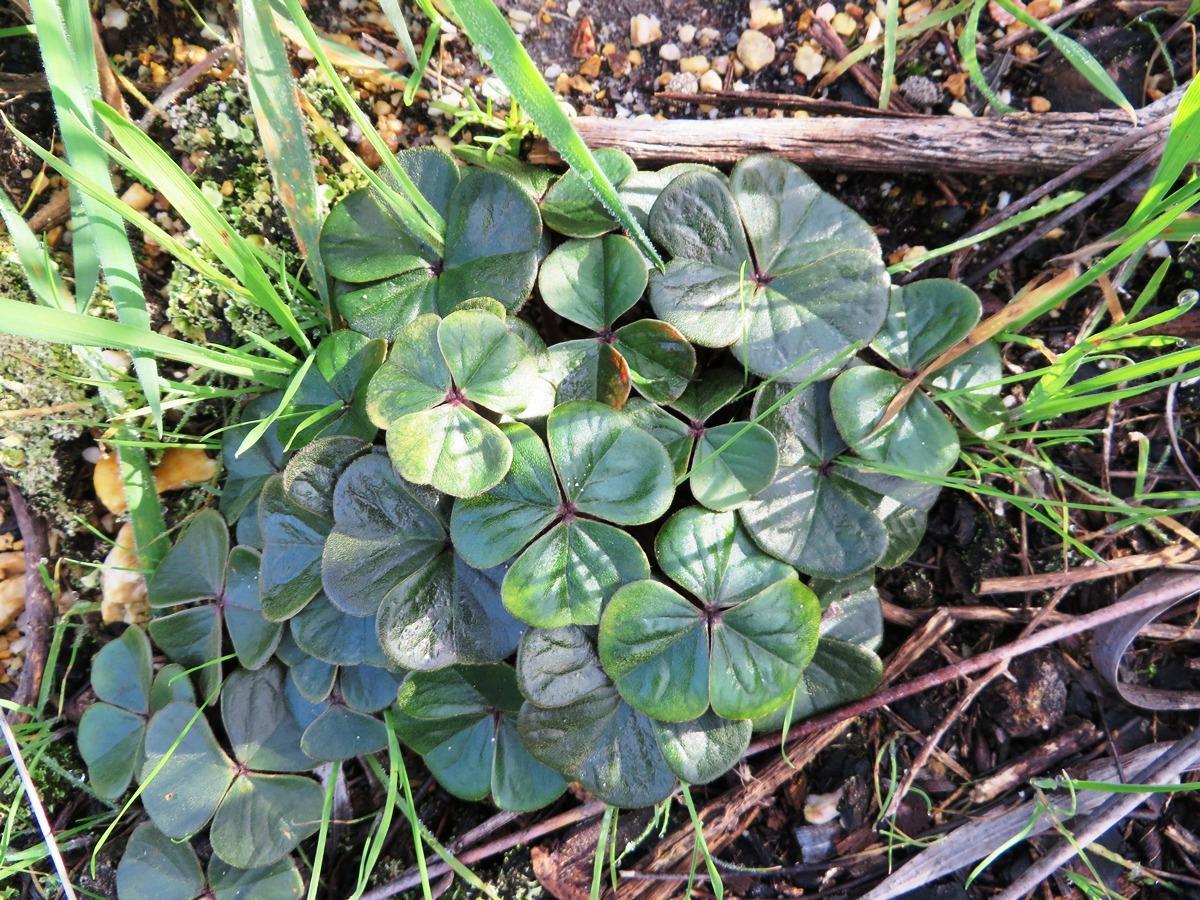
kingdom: Plantae
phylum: Tracheophyta
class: Magnoliopsida
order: Oxalidales
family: Oxalidaceae
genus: Oxalis
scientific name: Oxalis truncatula
